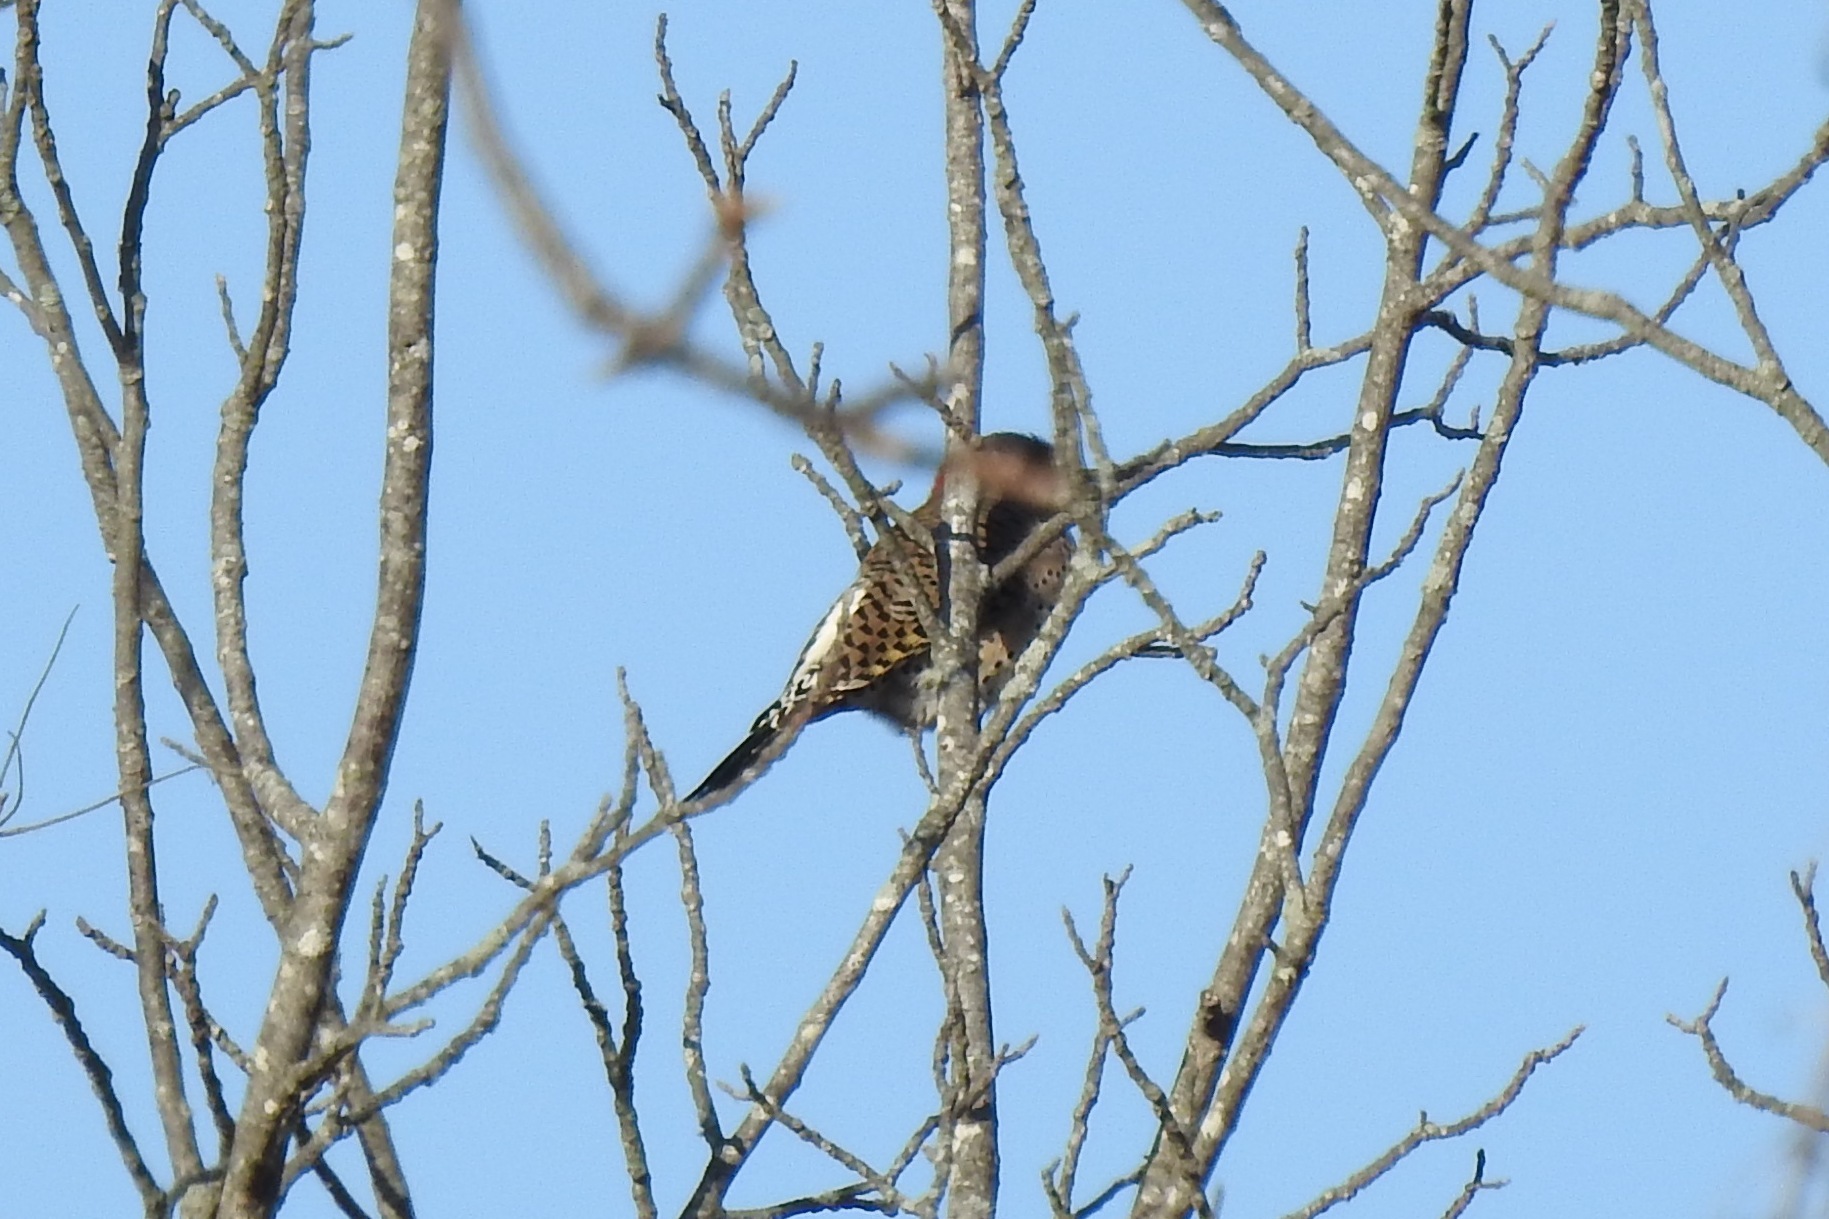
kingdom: Animalia
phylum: Chordata
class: Aves
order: Piciformes
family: Picidae
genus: Colaptes
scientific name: Colaptes auratus
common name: Northern flicker
